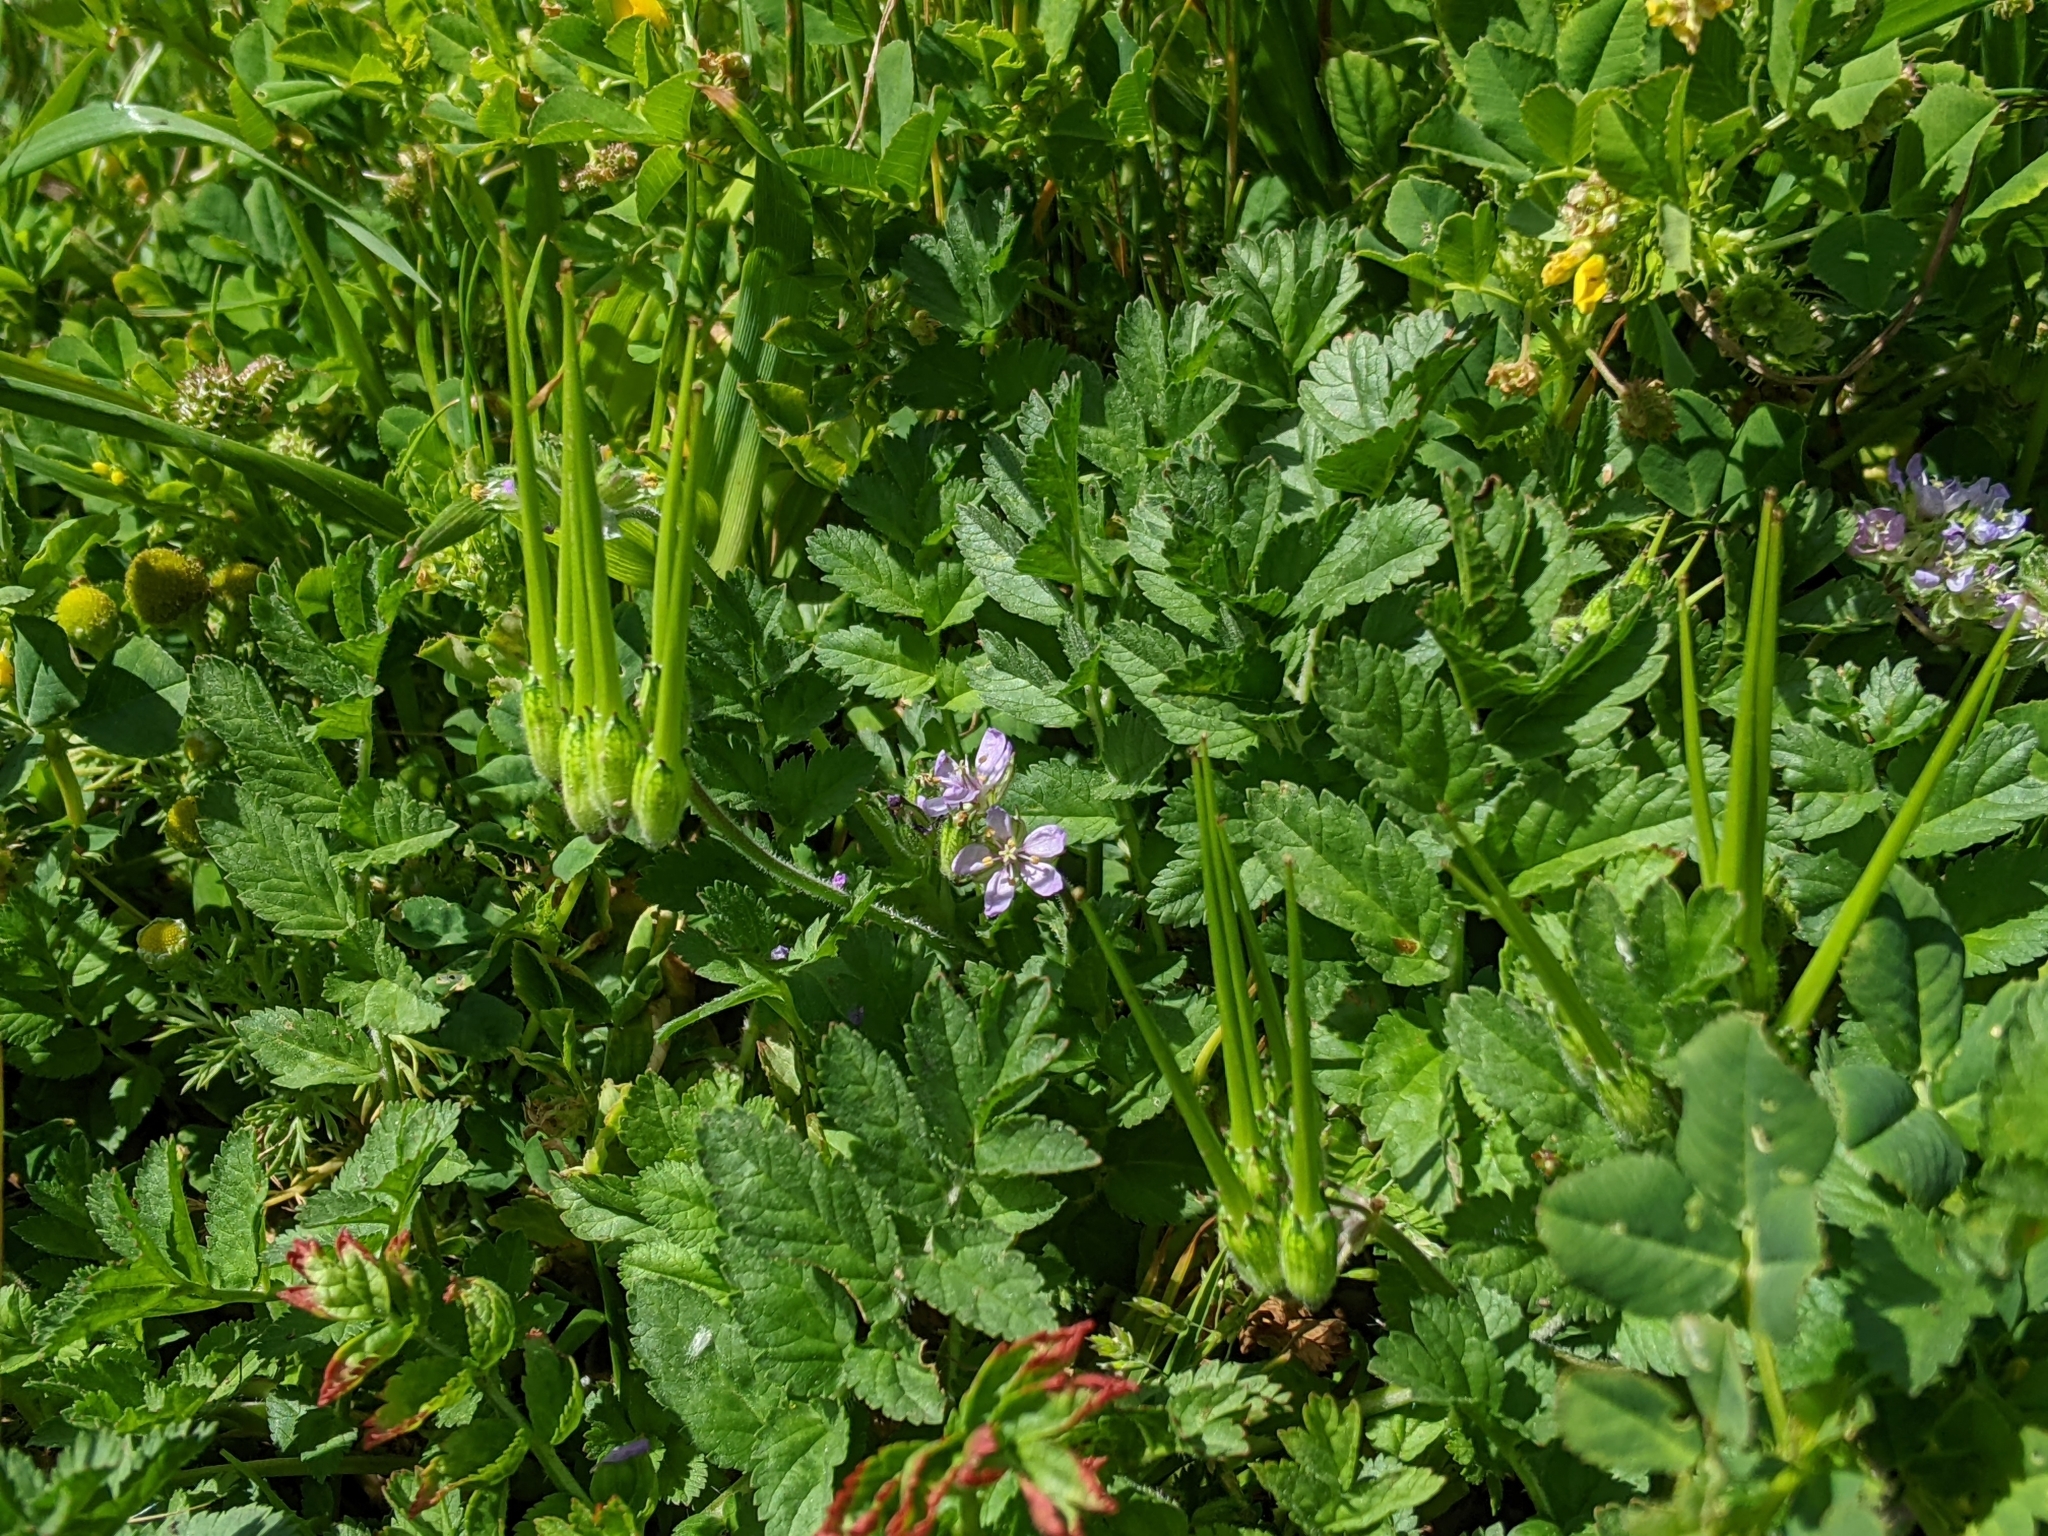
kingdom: Plantae
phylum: Tracheophyta
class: Magnoliopsida
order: Geraniales
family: Geraniaceae
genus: Erodium
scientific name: Erodium moschatum
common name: Musk stork's-bill
